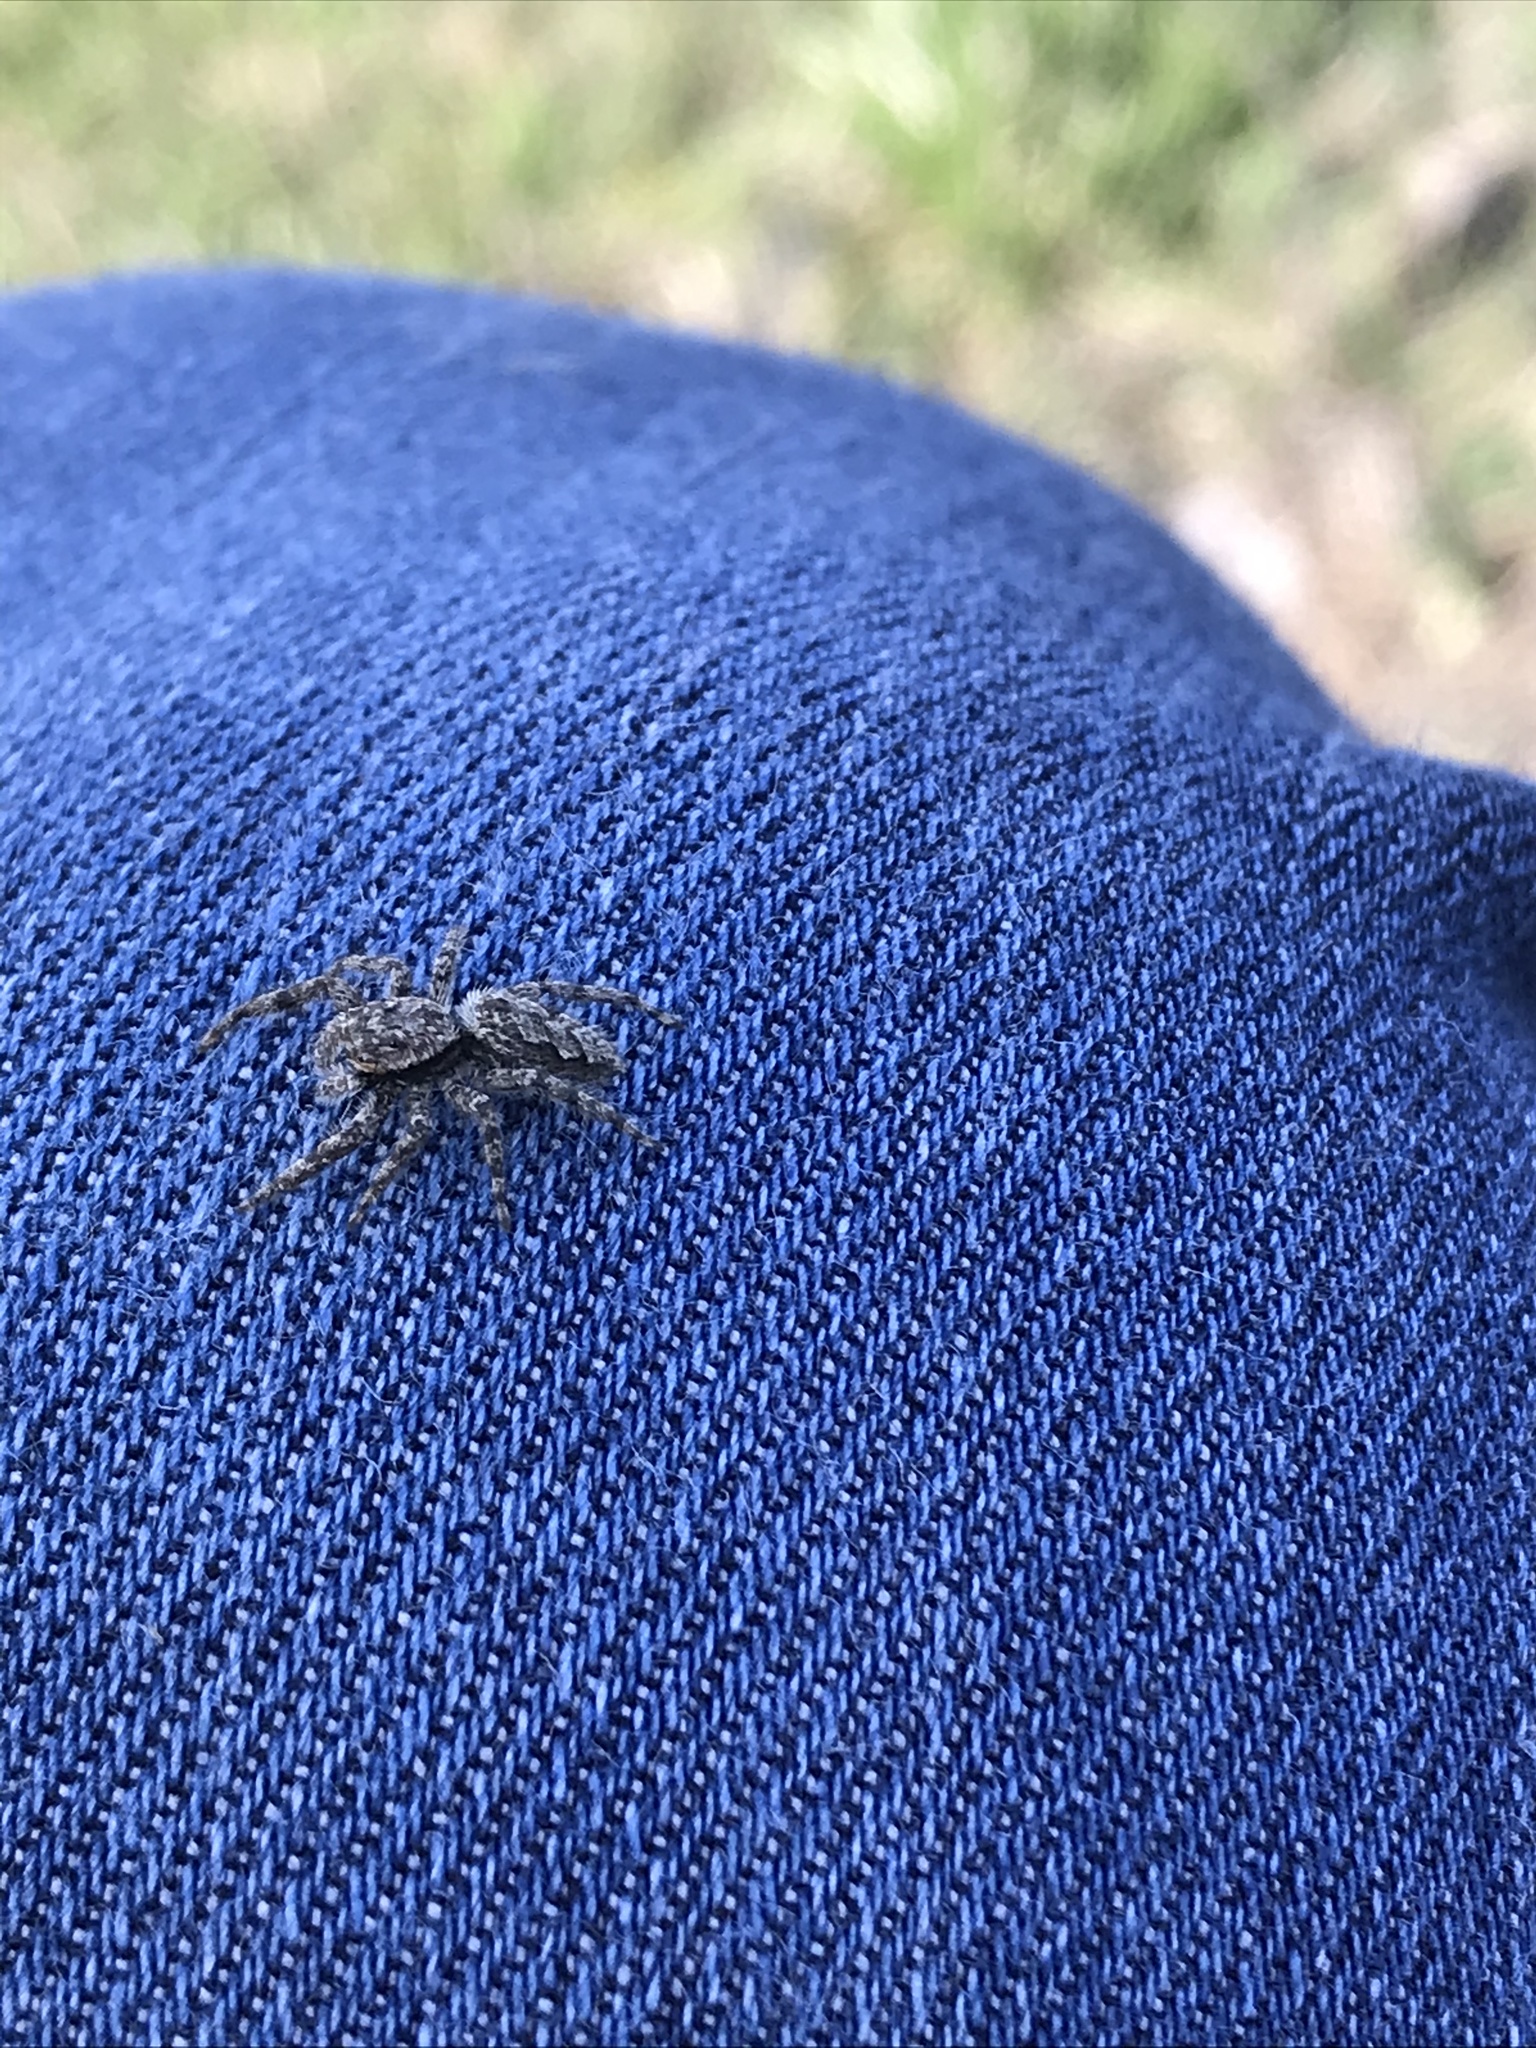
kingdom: Animalia
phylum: Arthropoda
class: Arachnida
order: Araneae
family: Salticidae
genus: Platycryptus
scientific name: Platycryptus undatus
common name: Tan jumping spider
